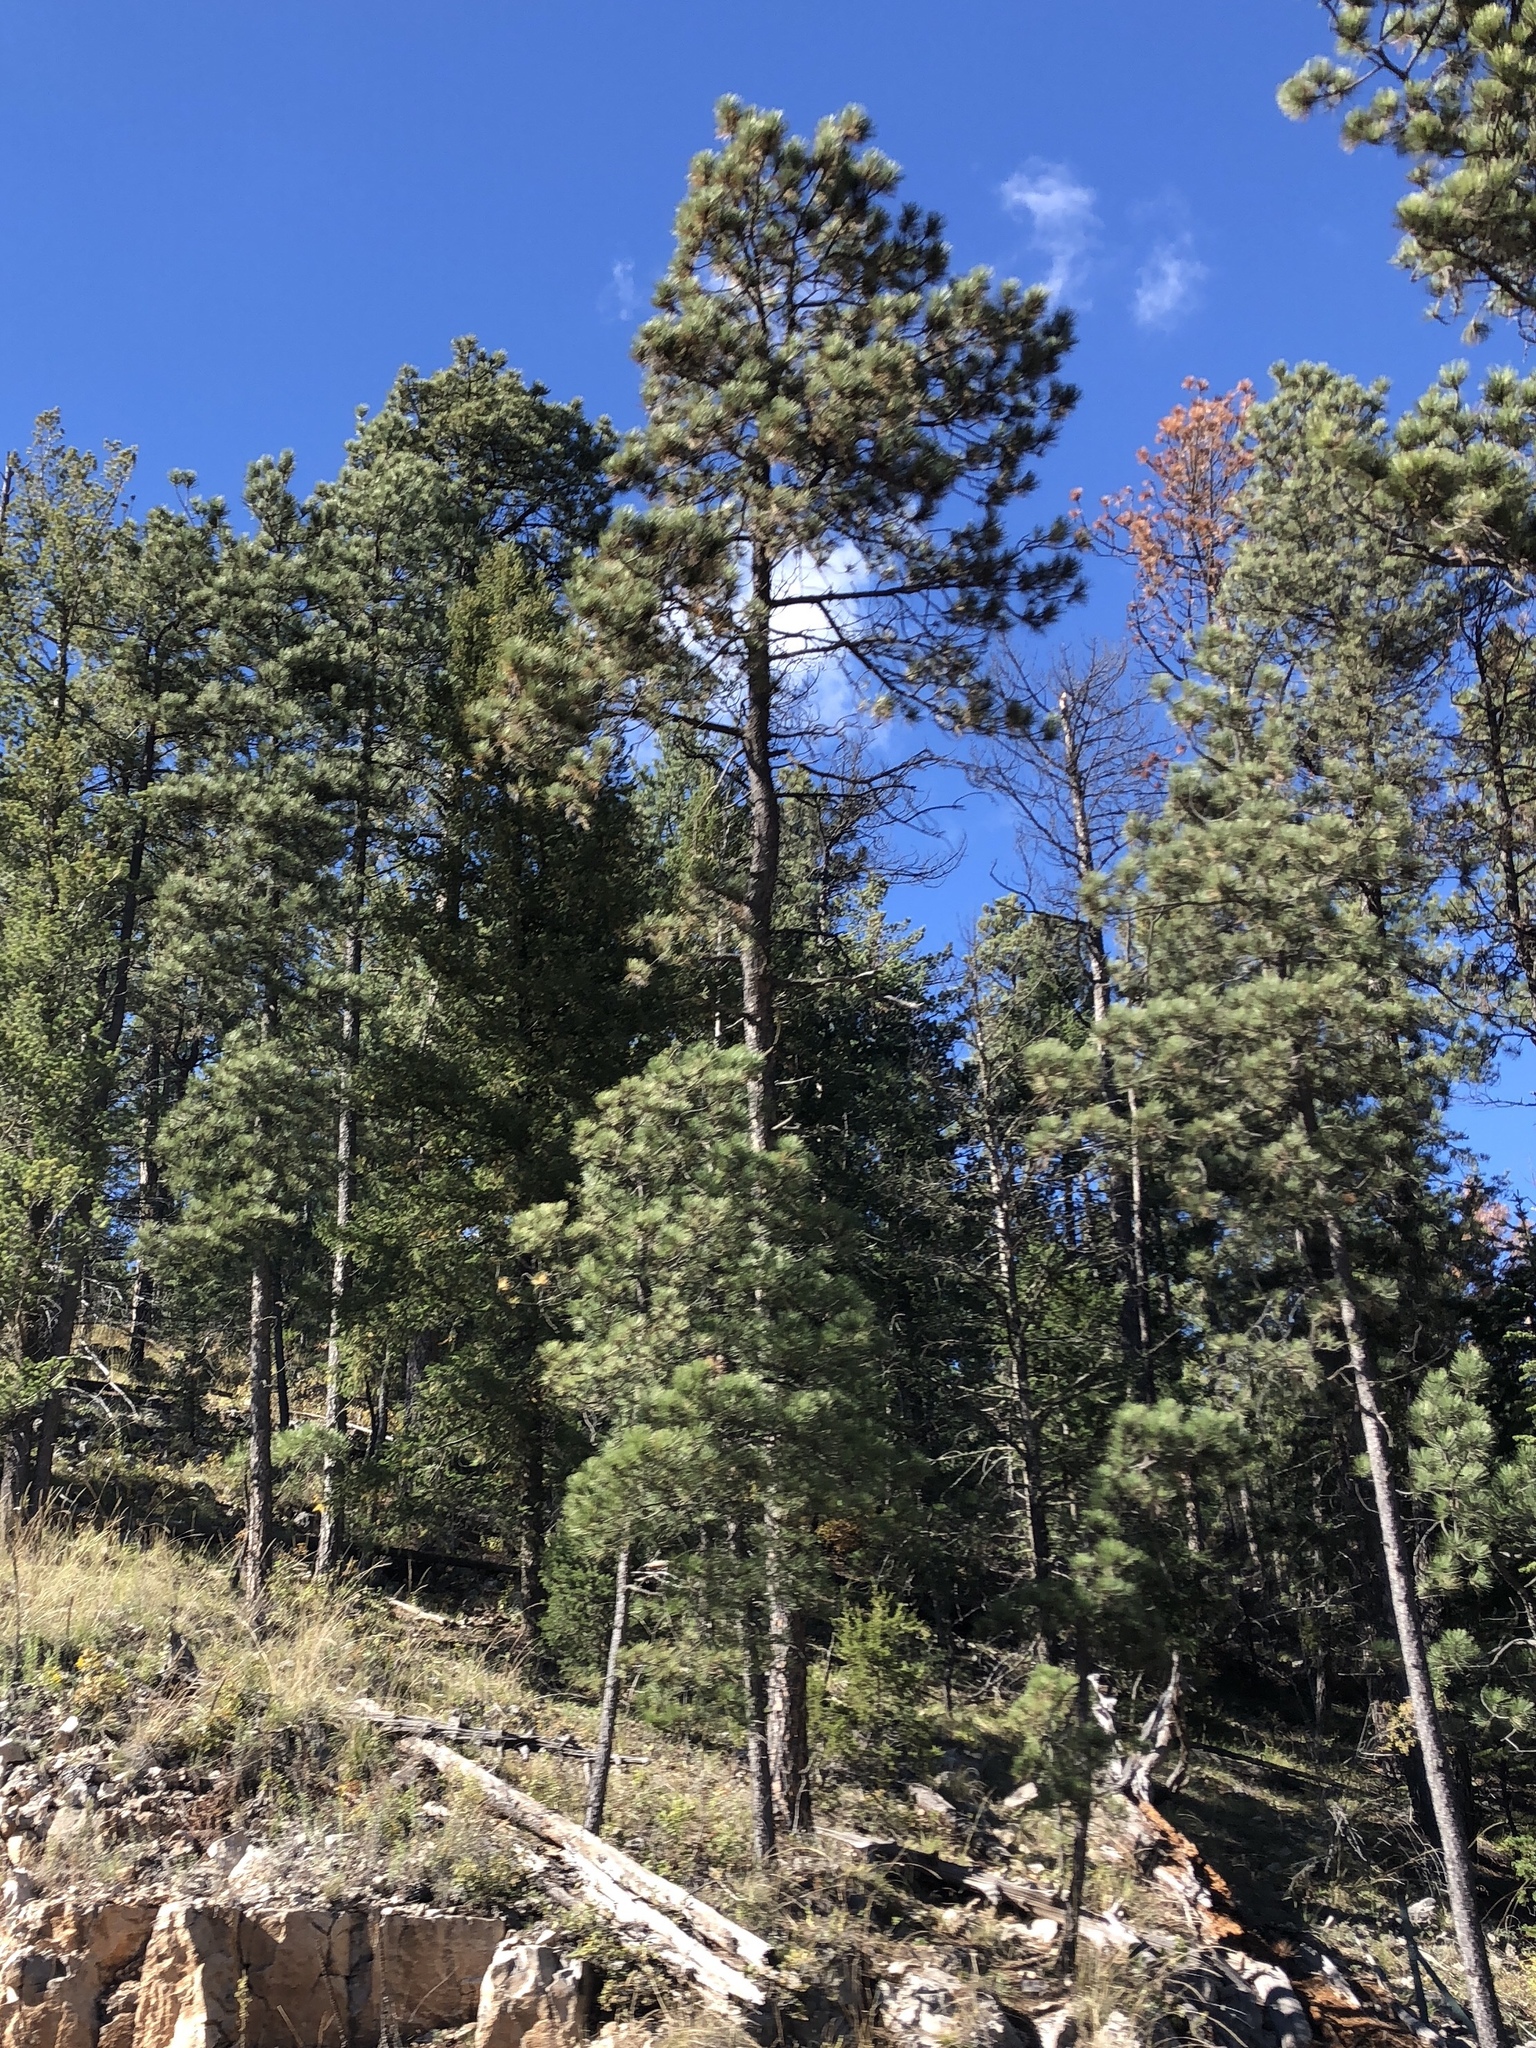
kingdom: Plantae
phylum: Tracheophyta
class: Pinopsida
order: Pinales
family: Pinaceae
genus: Pinus
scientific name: Pinus ponderosa
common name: Western yellow-pine
